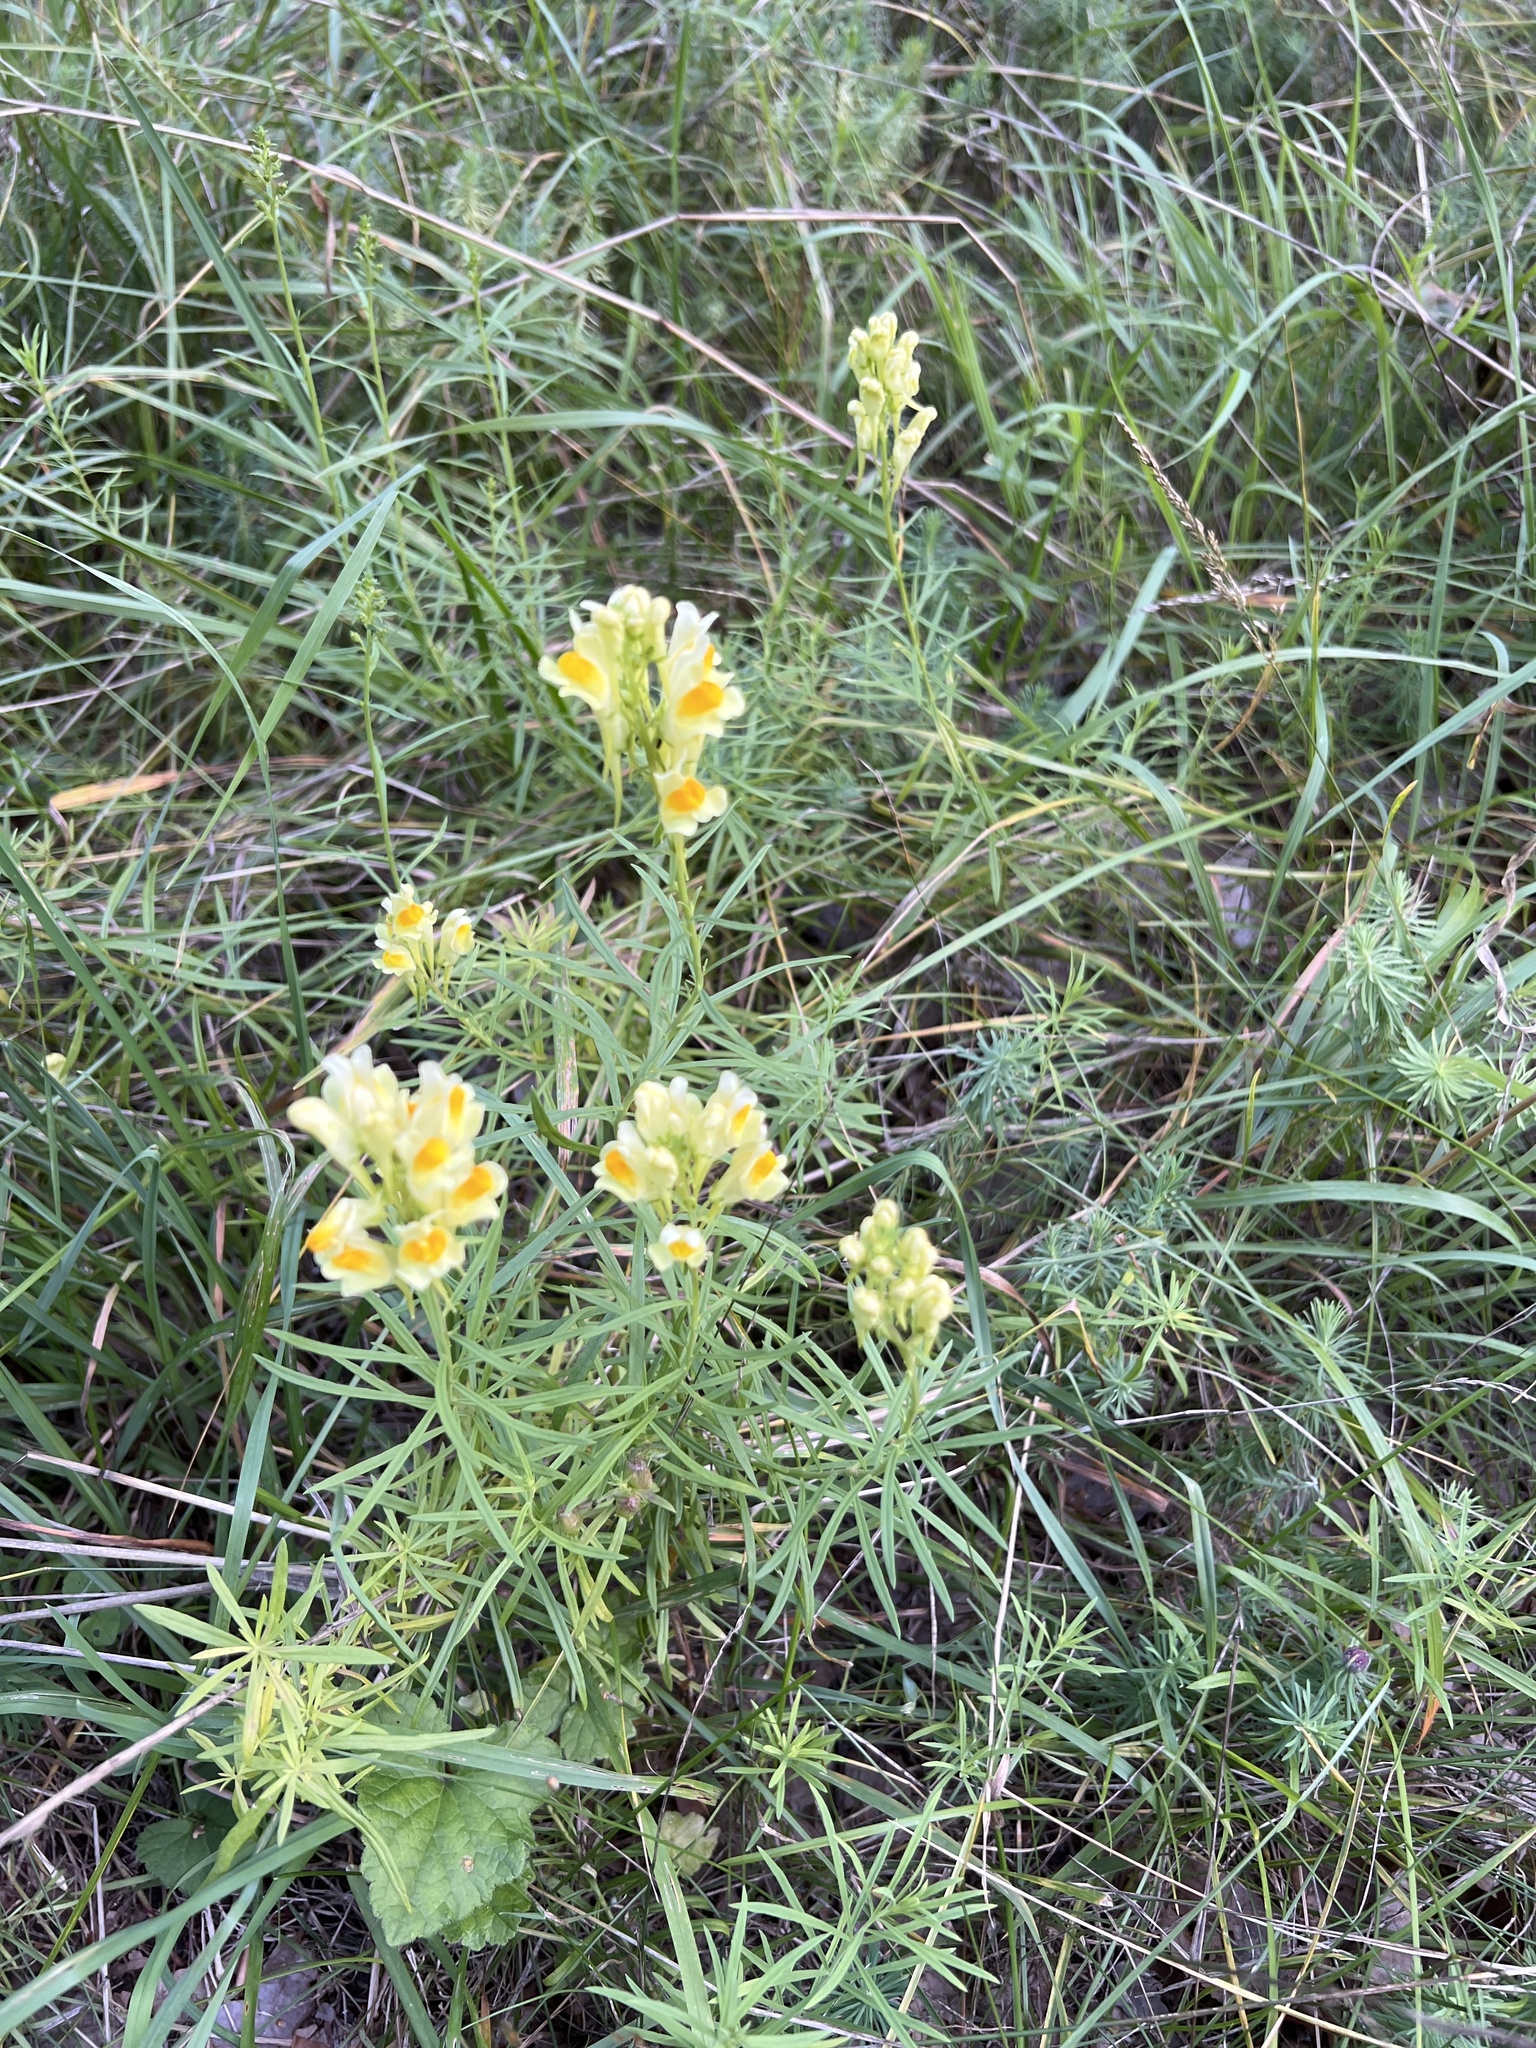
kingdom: Plantae
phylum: Tracheophyta
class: Magnoliopsida
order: Lamiales
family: Plantaginaceae
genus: Linaria
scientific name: Linaria vulgaris
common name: Butter and eggs
